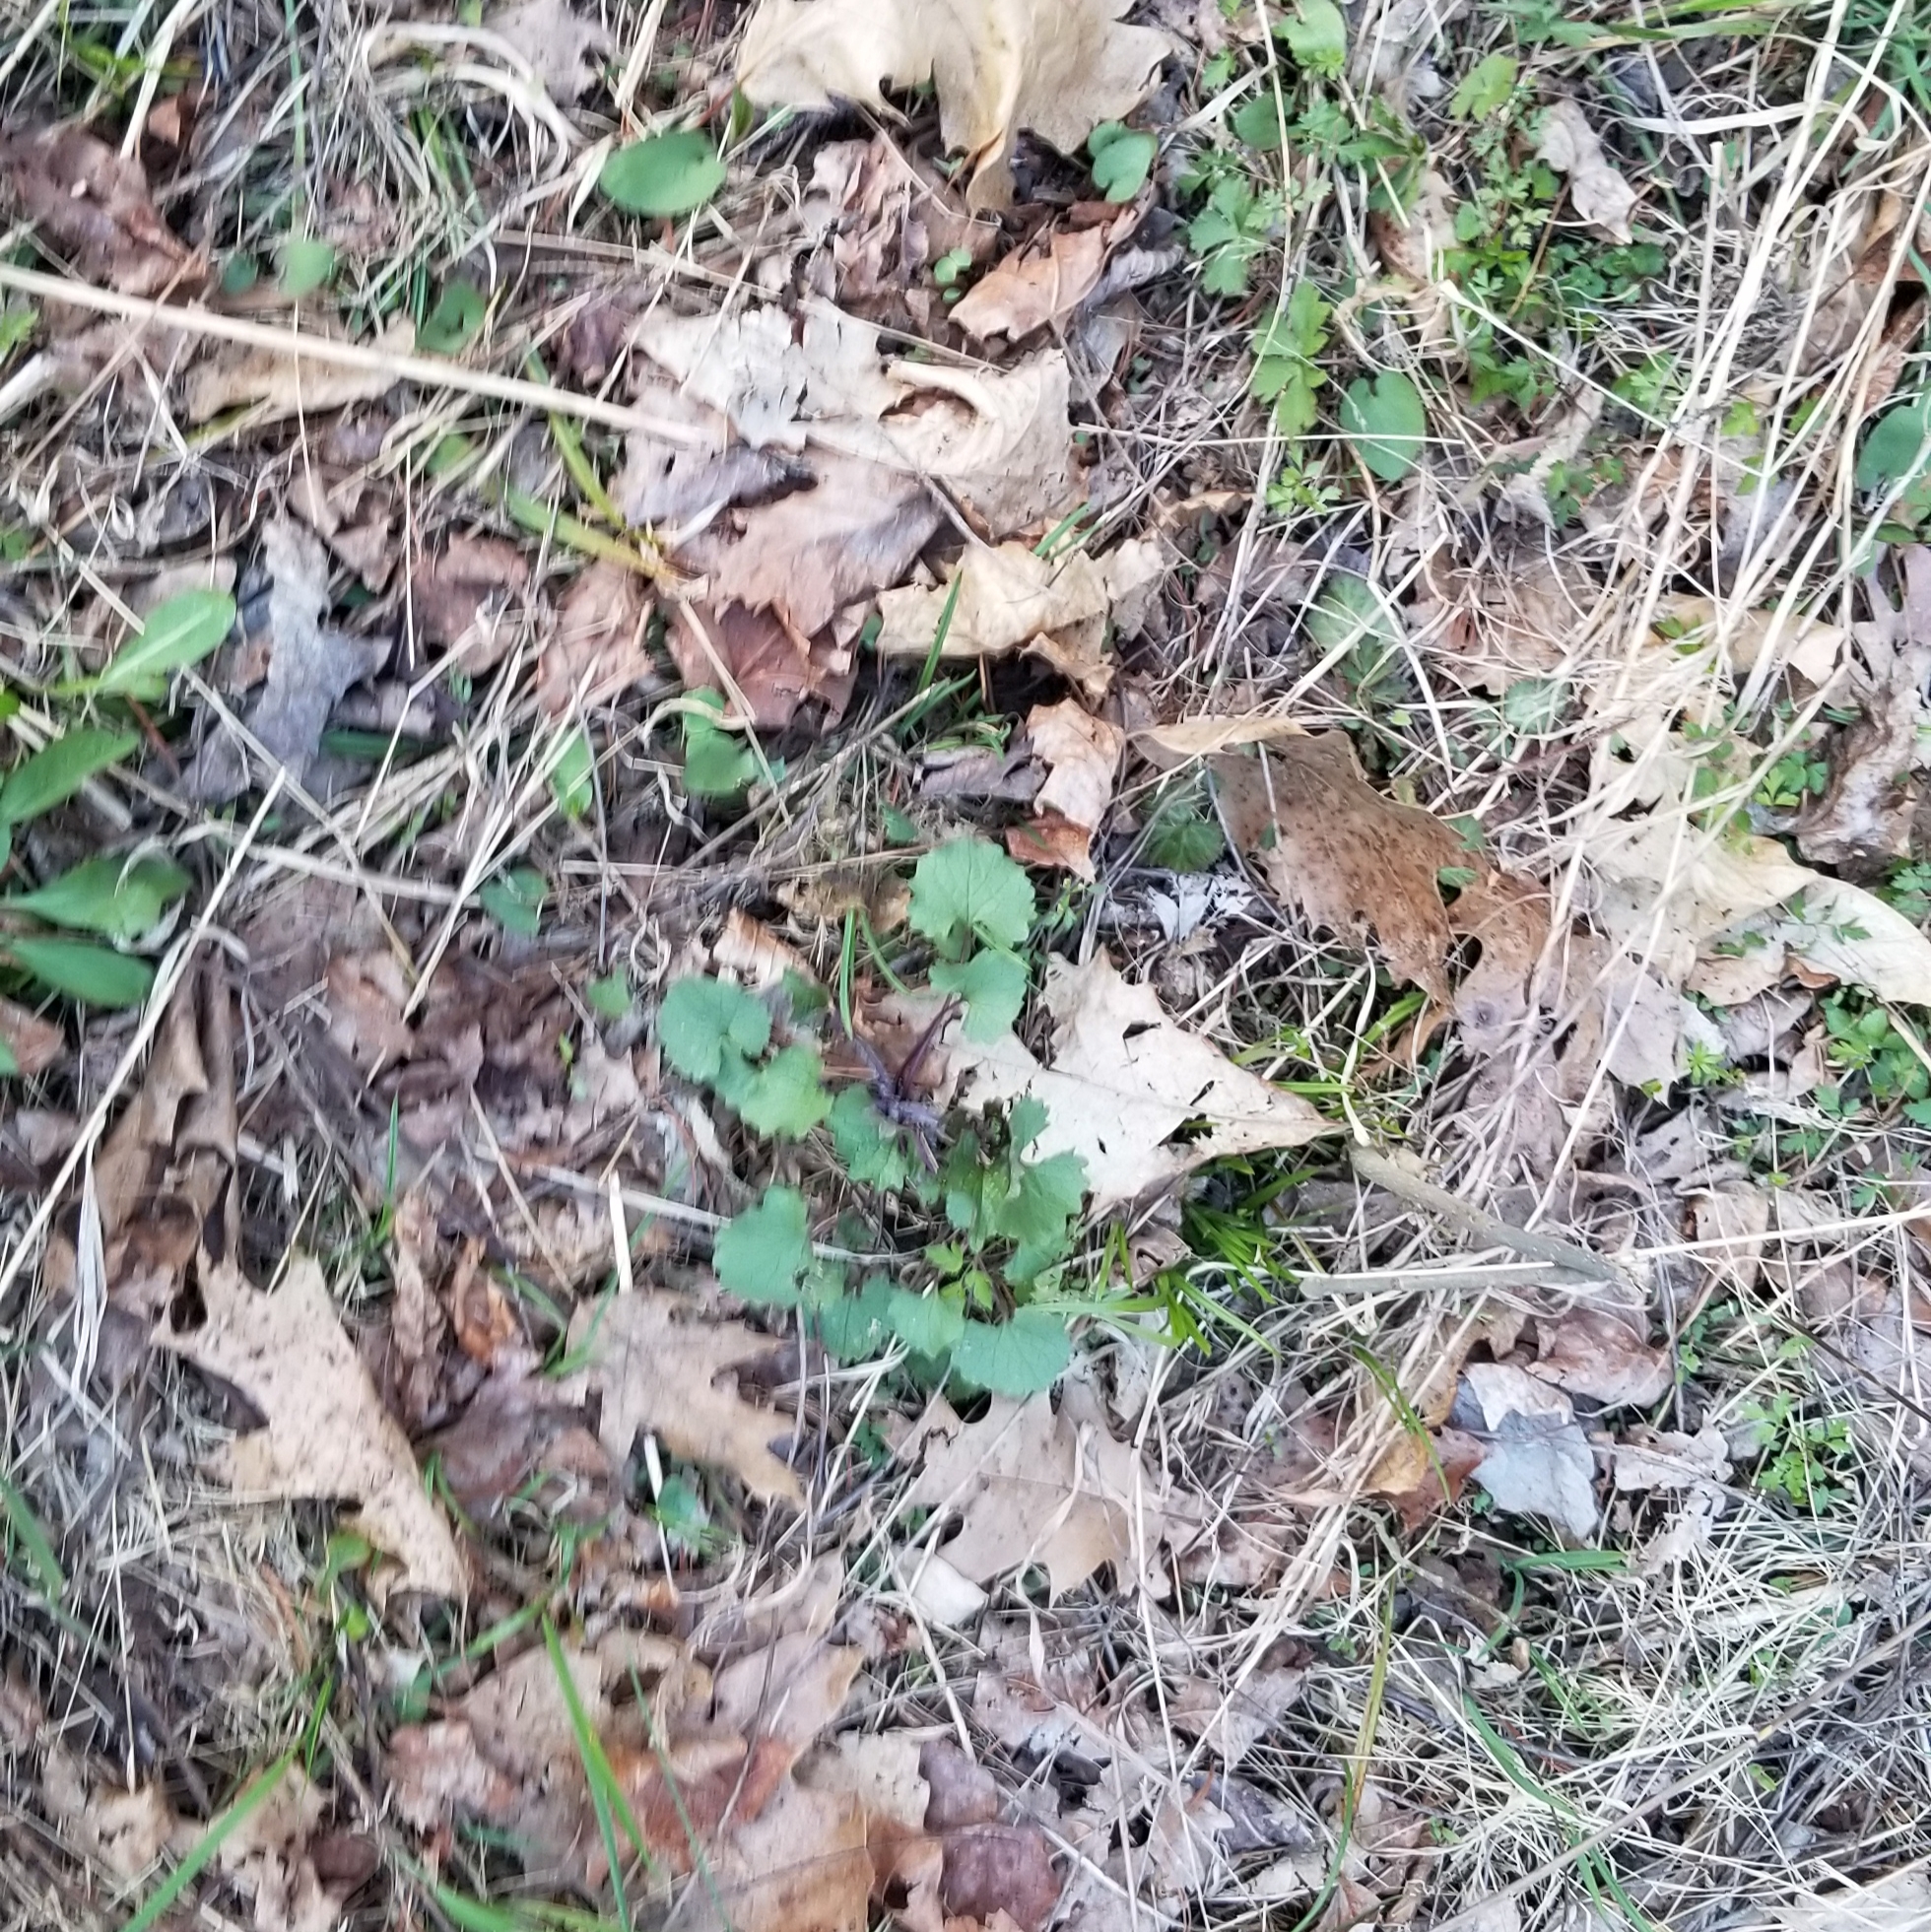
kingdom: Plantae
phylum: Tracheophyta
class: Magnoliopsida
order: Brassicales
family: Brassicaceae
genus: Alliaria
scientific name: Alliaria petiolata
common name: Garlic mustard
